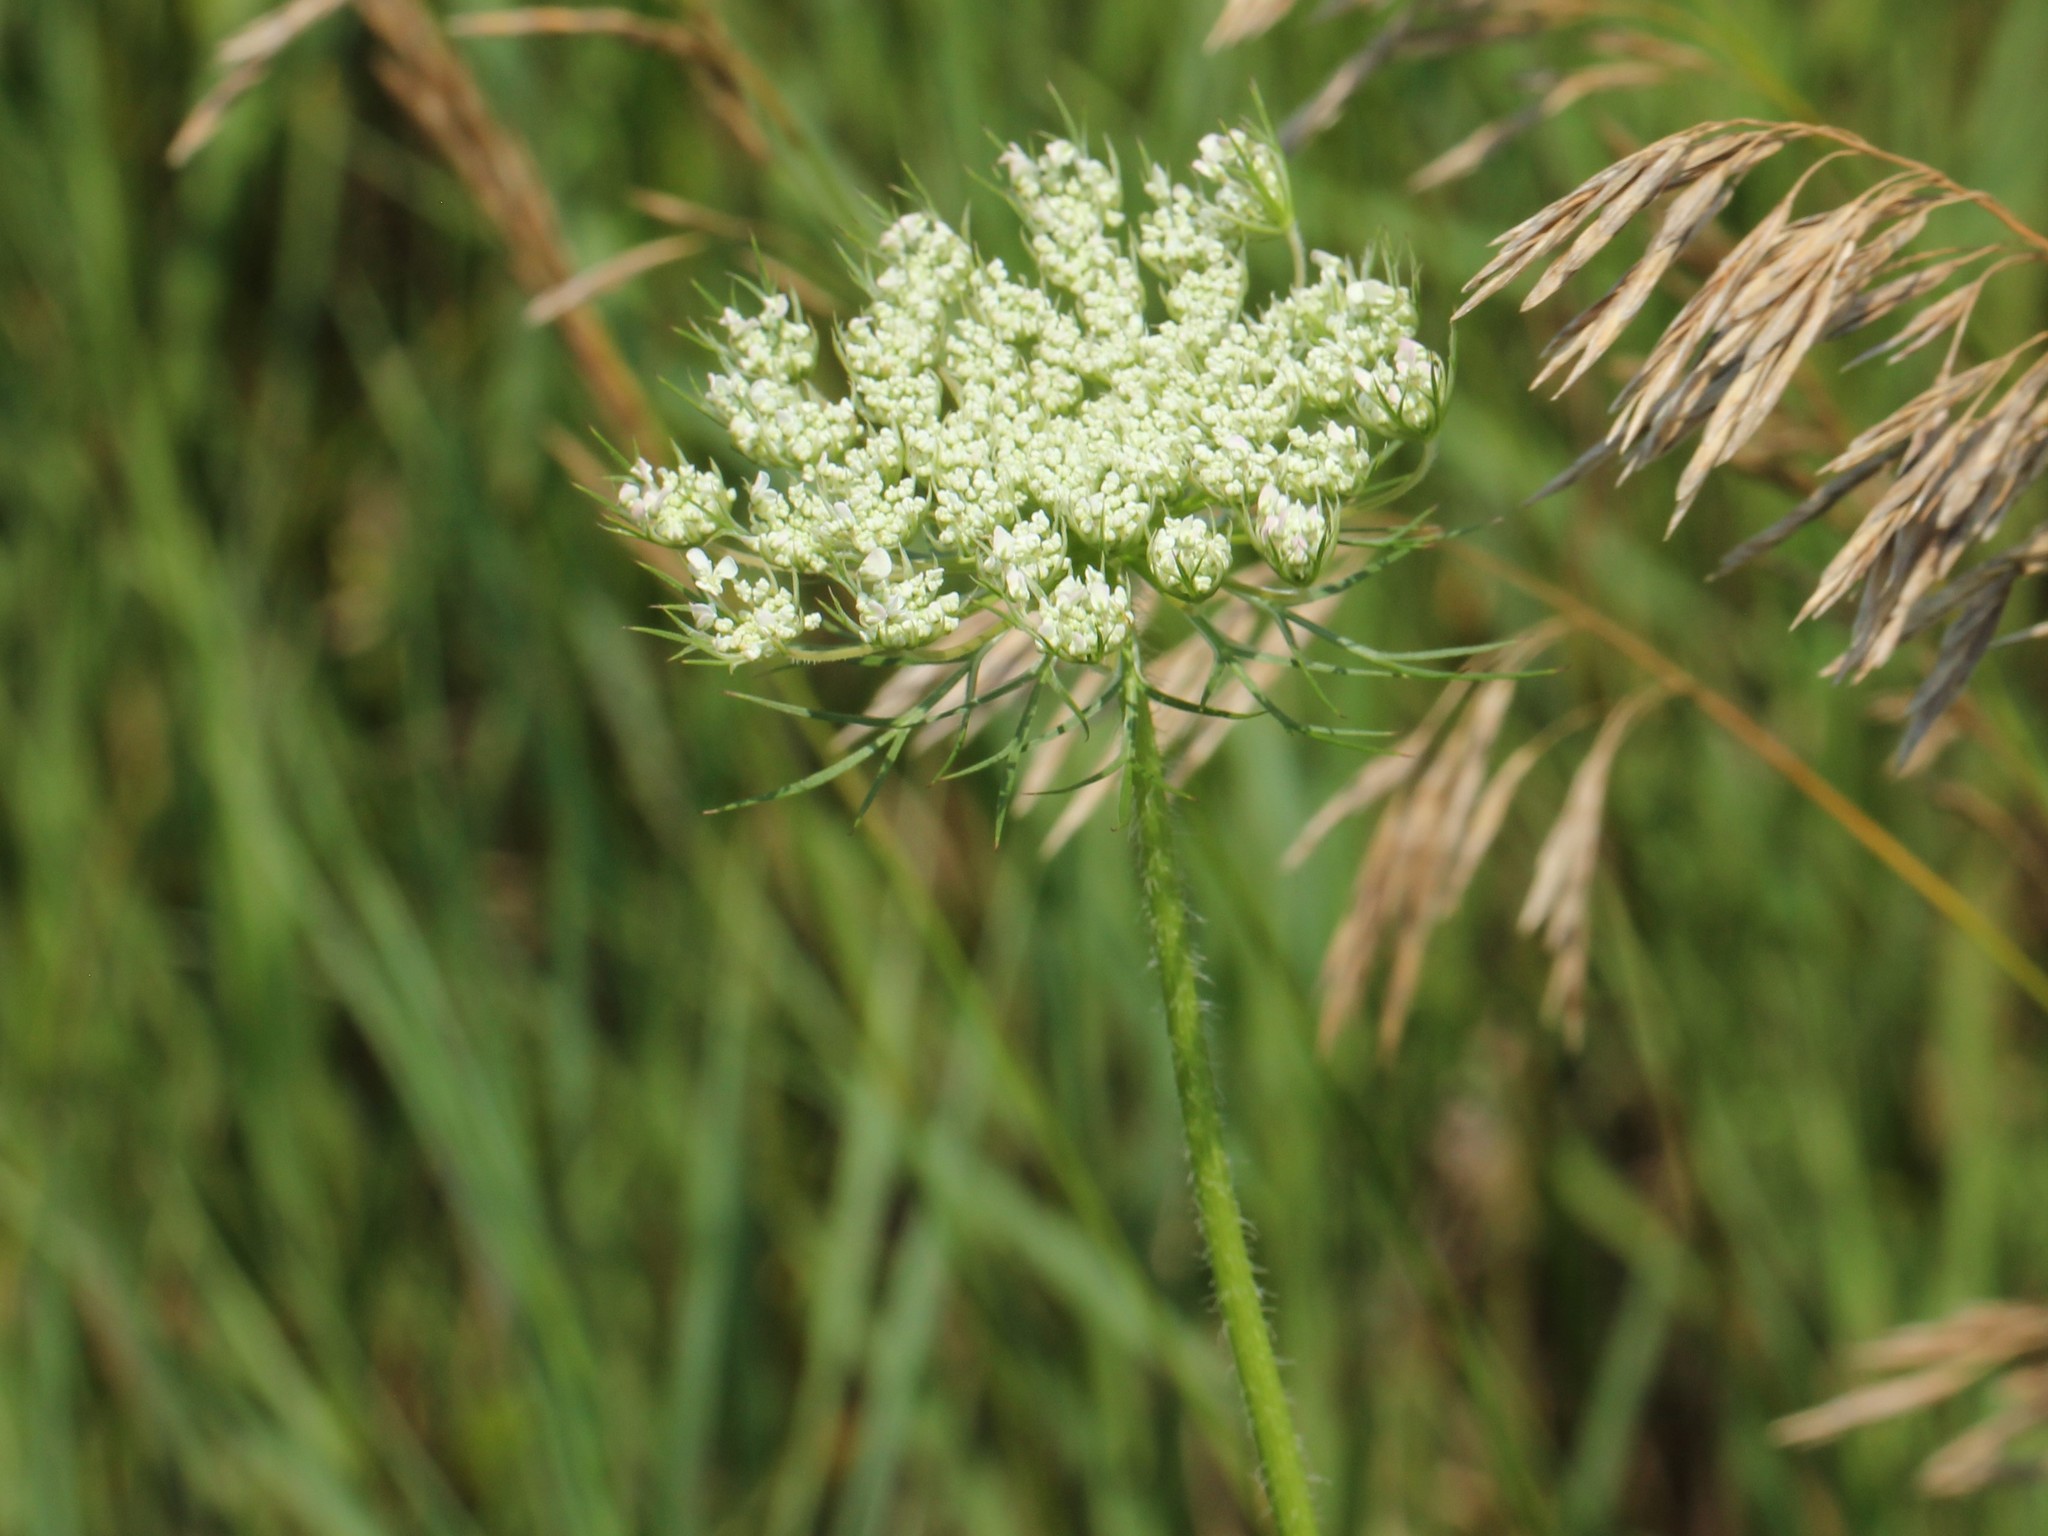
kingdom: Plantae
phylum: Tracheophyta
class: Magnoliopsida
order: Apiales
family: Apiaceae
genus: Daucus
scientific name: Daucus carota
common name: Wild carrot
